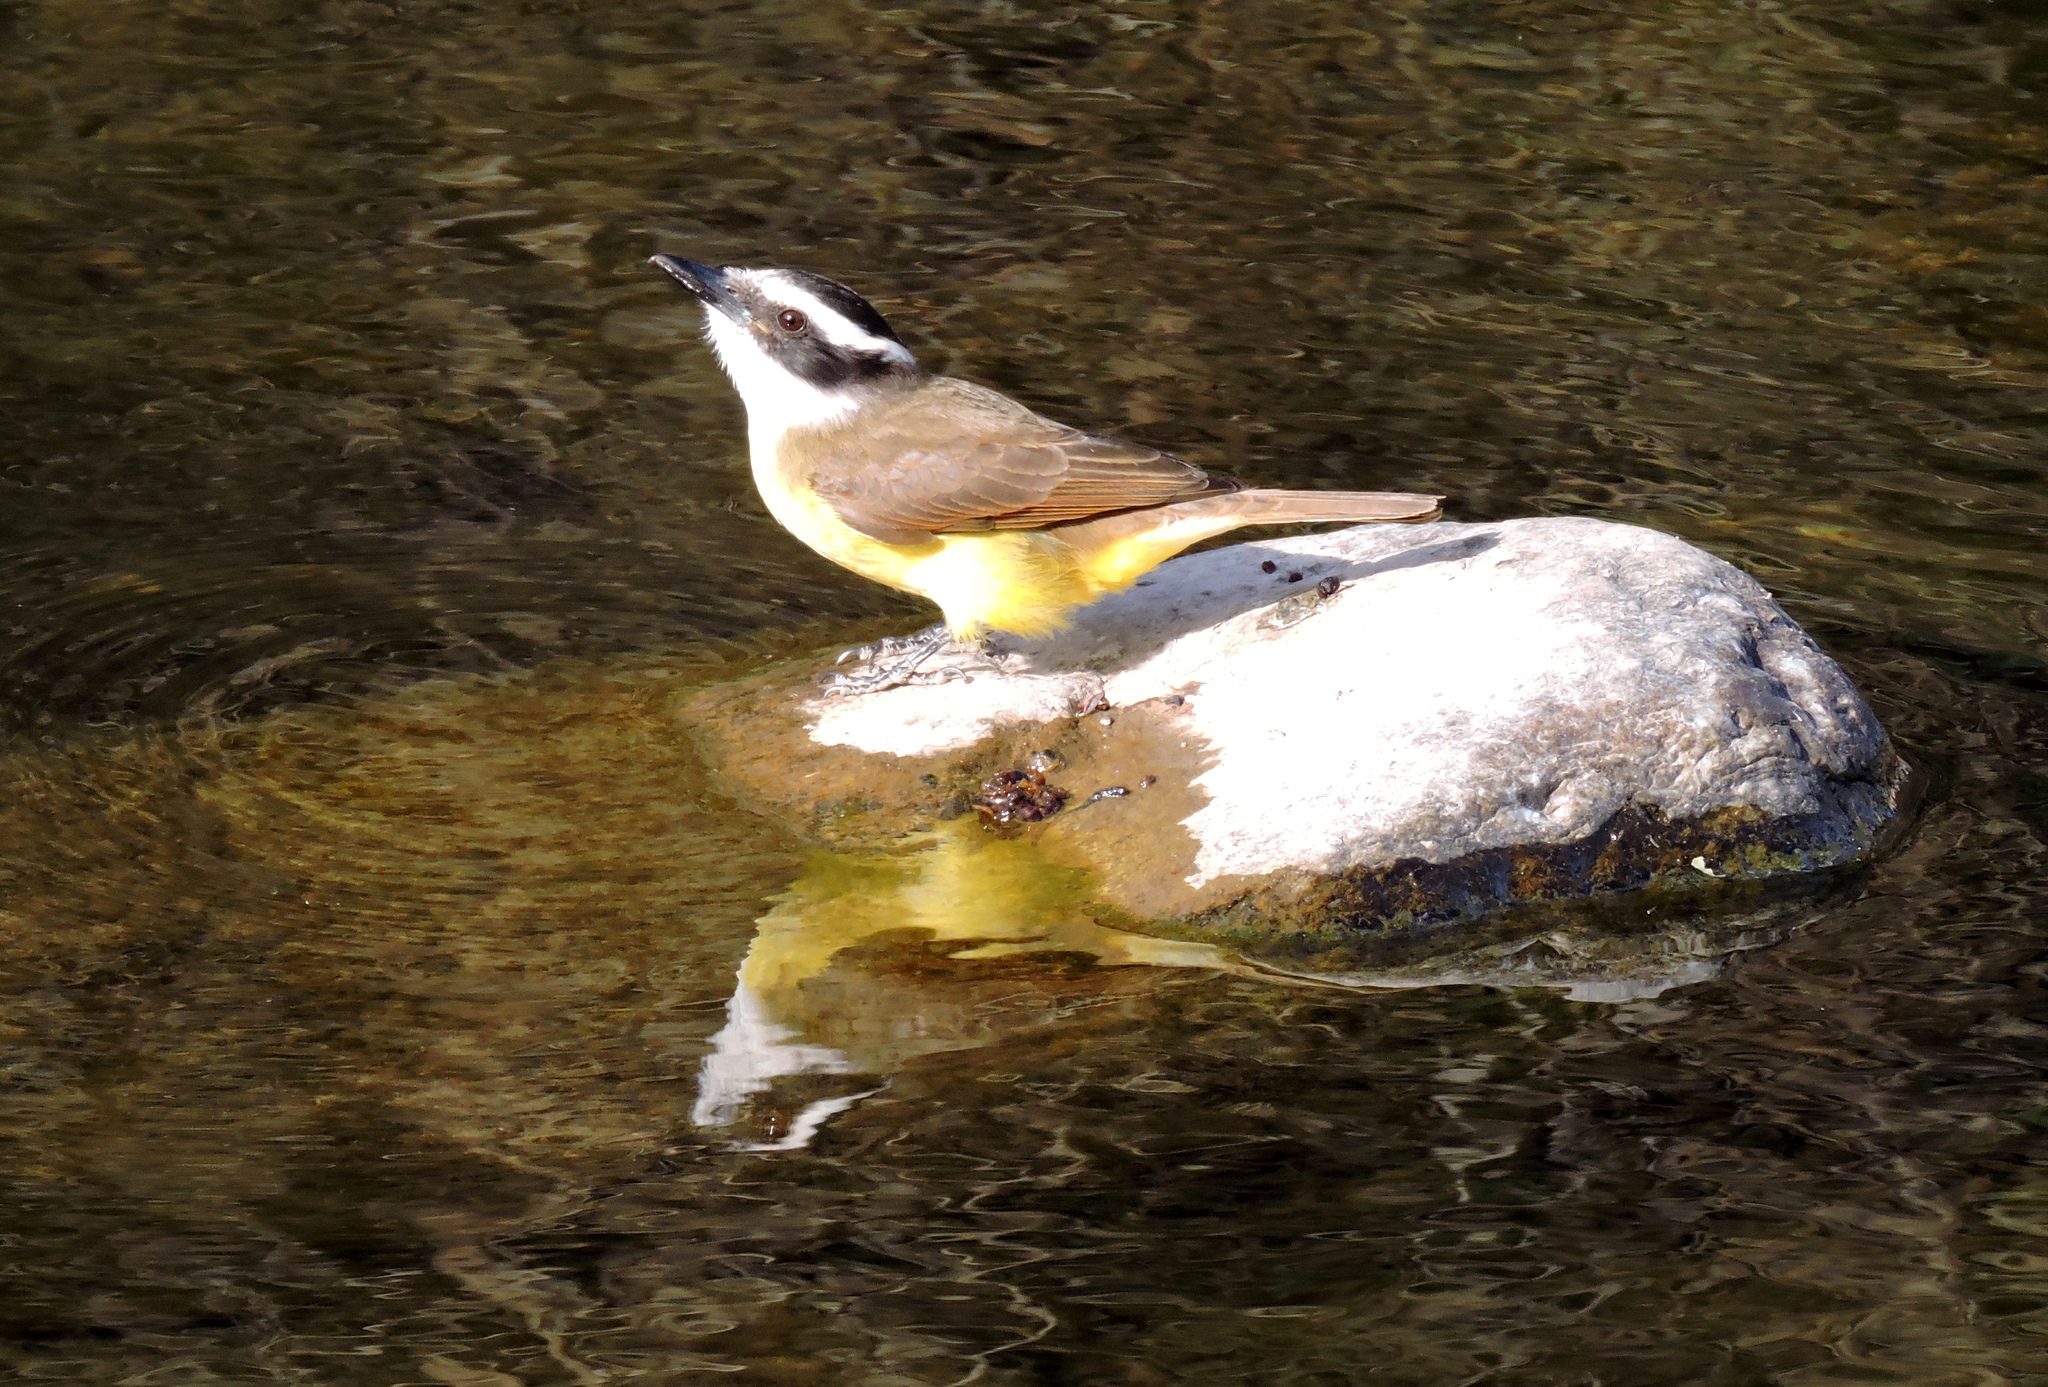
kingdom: Animalia
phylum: Chordata
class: Aves
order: Passeriformes
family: Tyrannidae
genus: Pitangus
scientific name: Pitangus sulphuratus
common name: Great kiskadee
